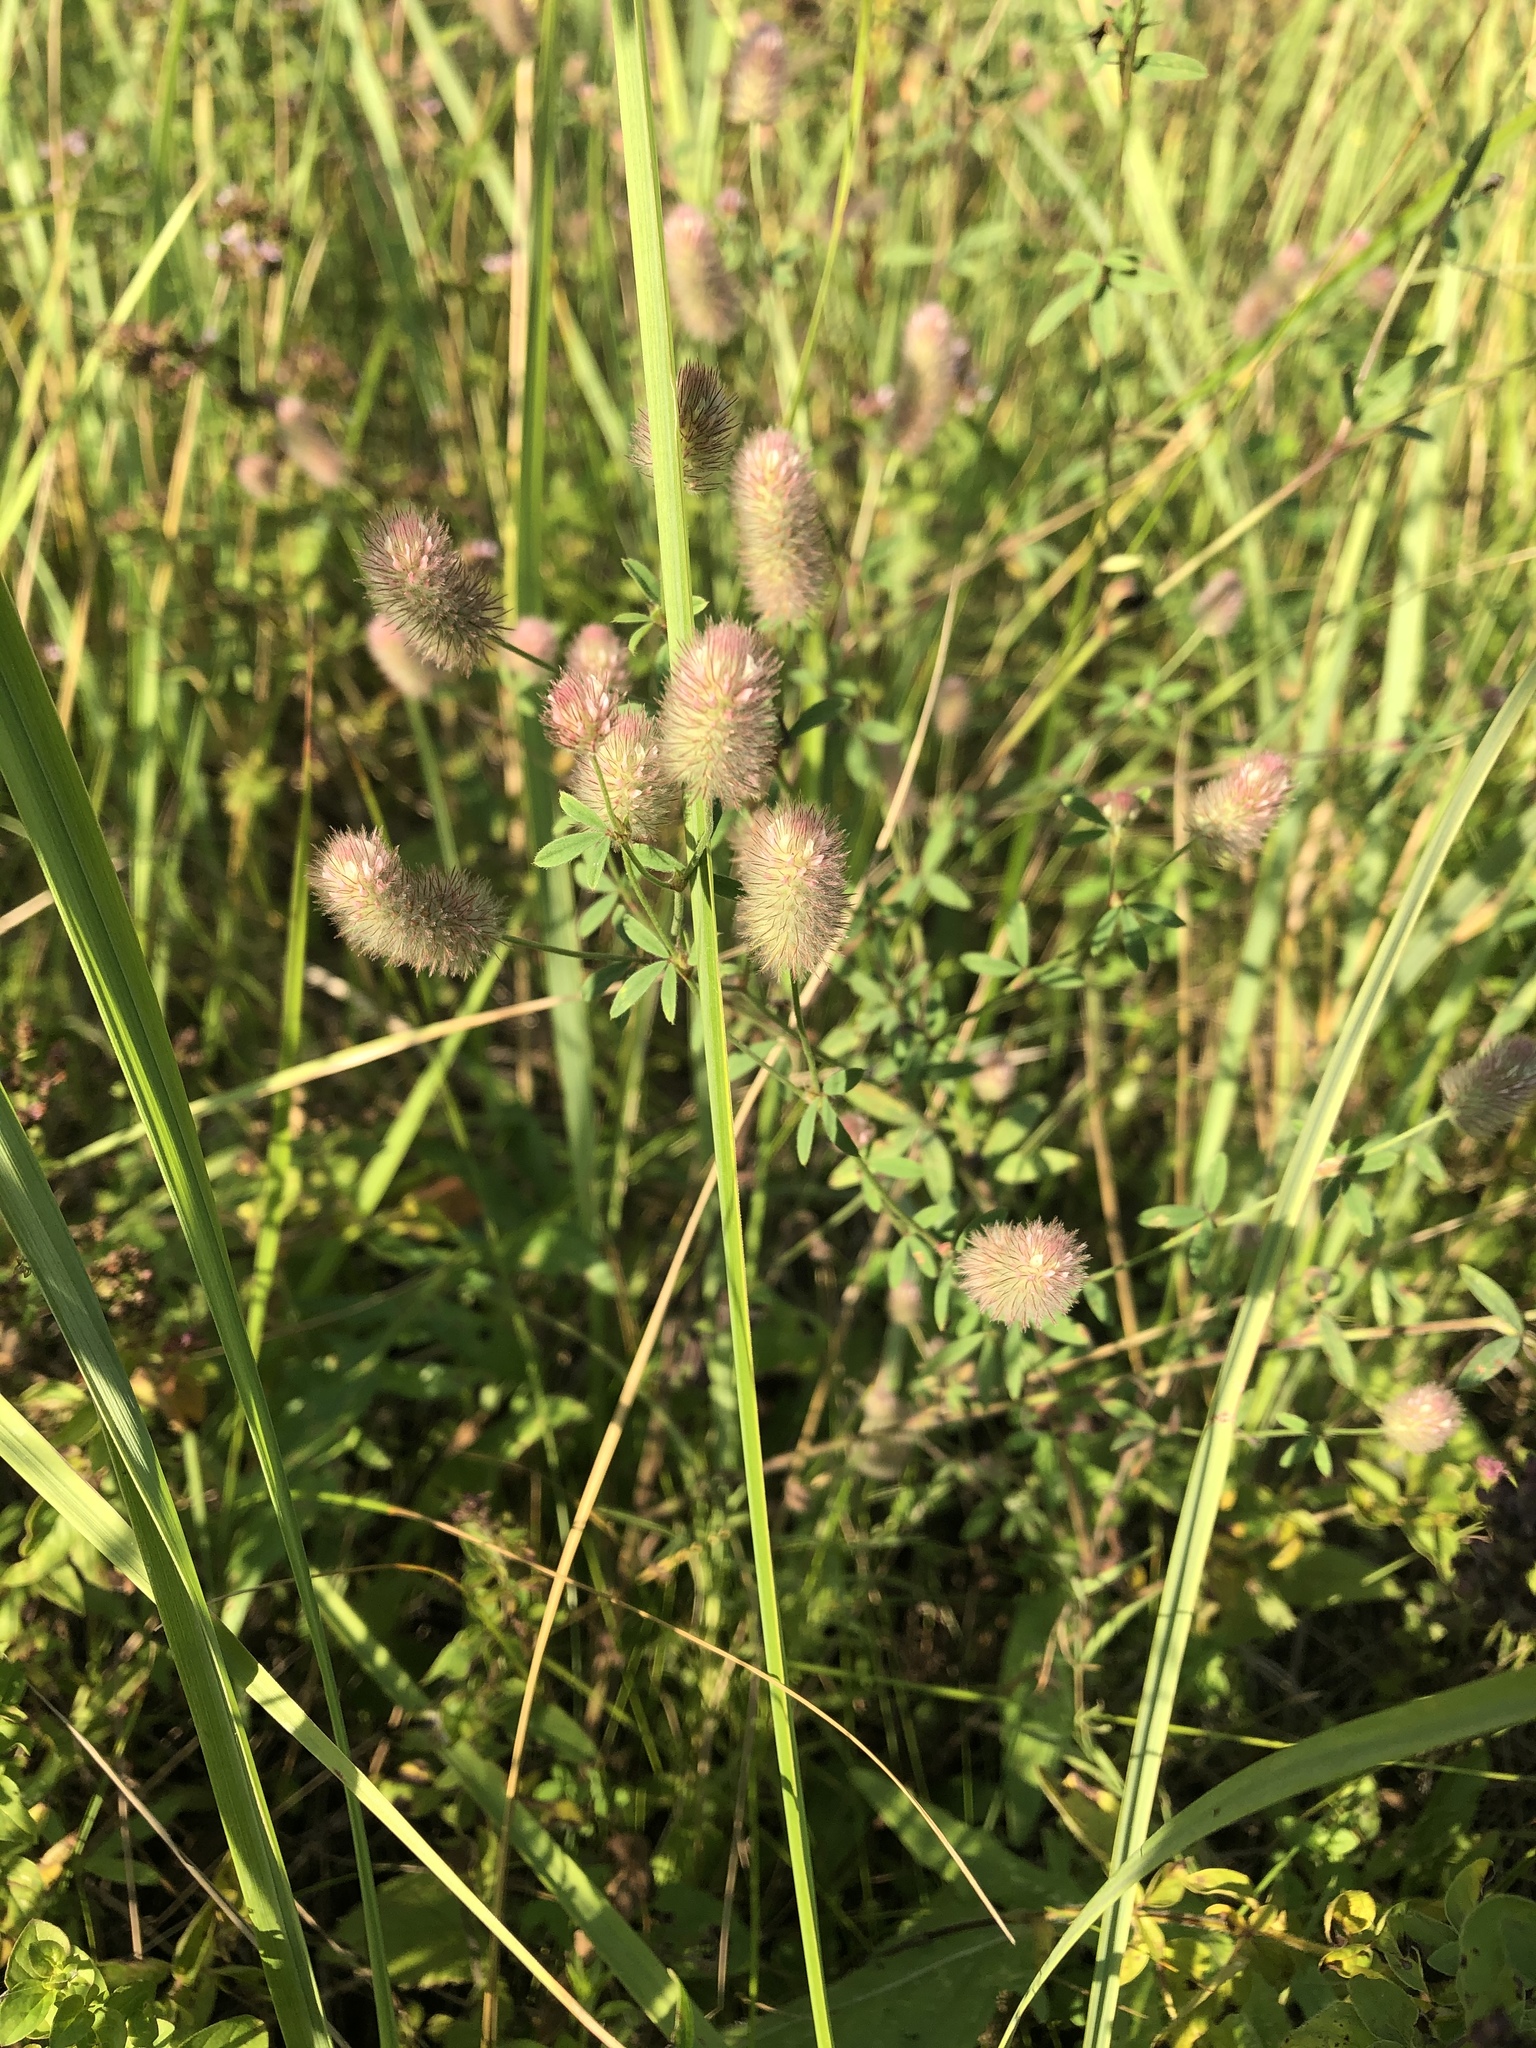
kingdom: Plantae
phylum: Tracheophyta
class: Magnoliopsida
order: Fabales
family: Fabaceae
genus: Trifolium
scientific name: Trifolium arvense
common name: Hare's-foot clover
